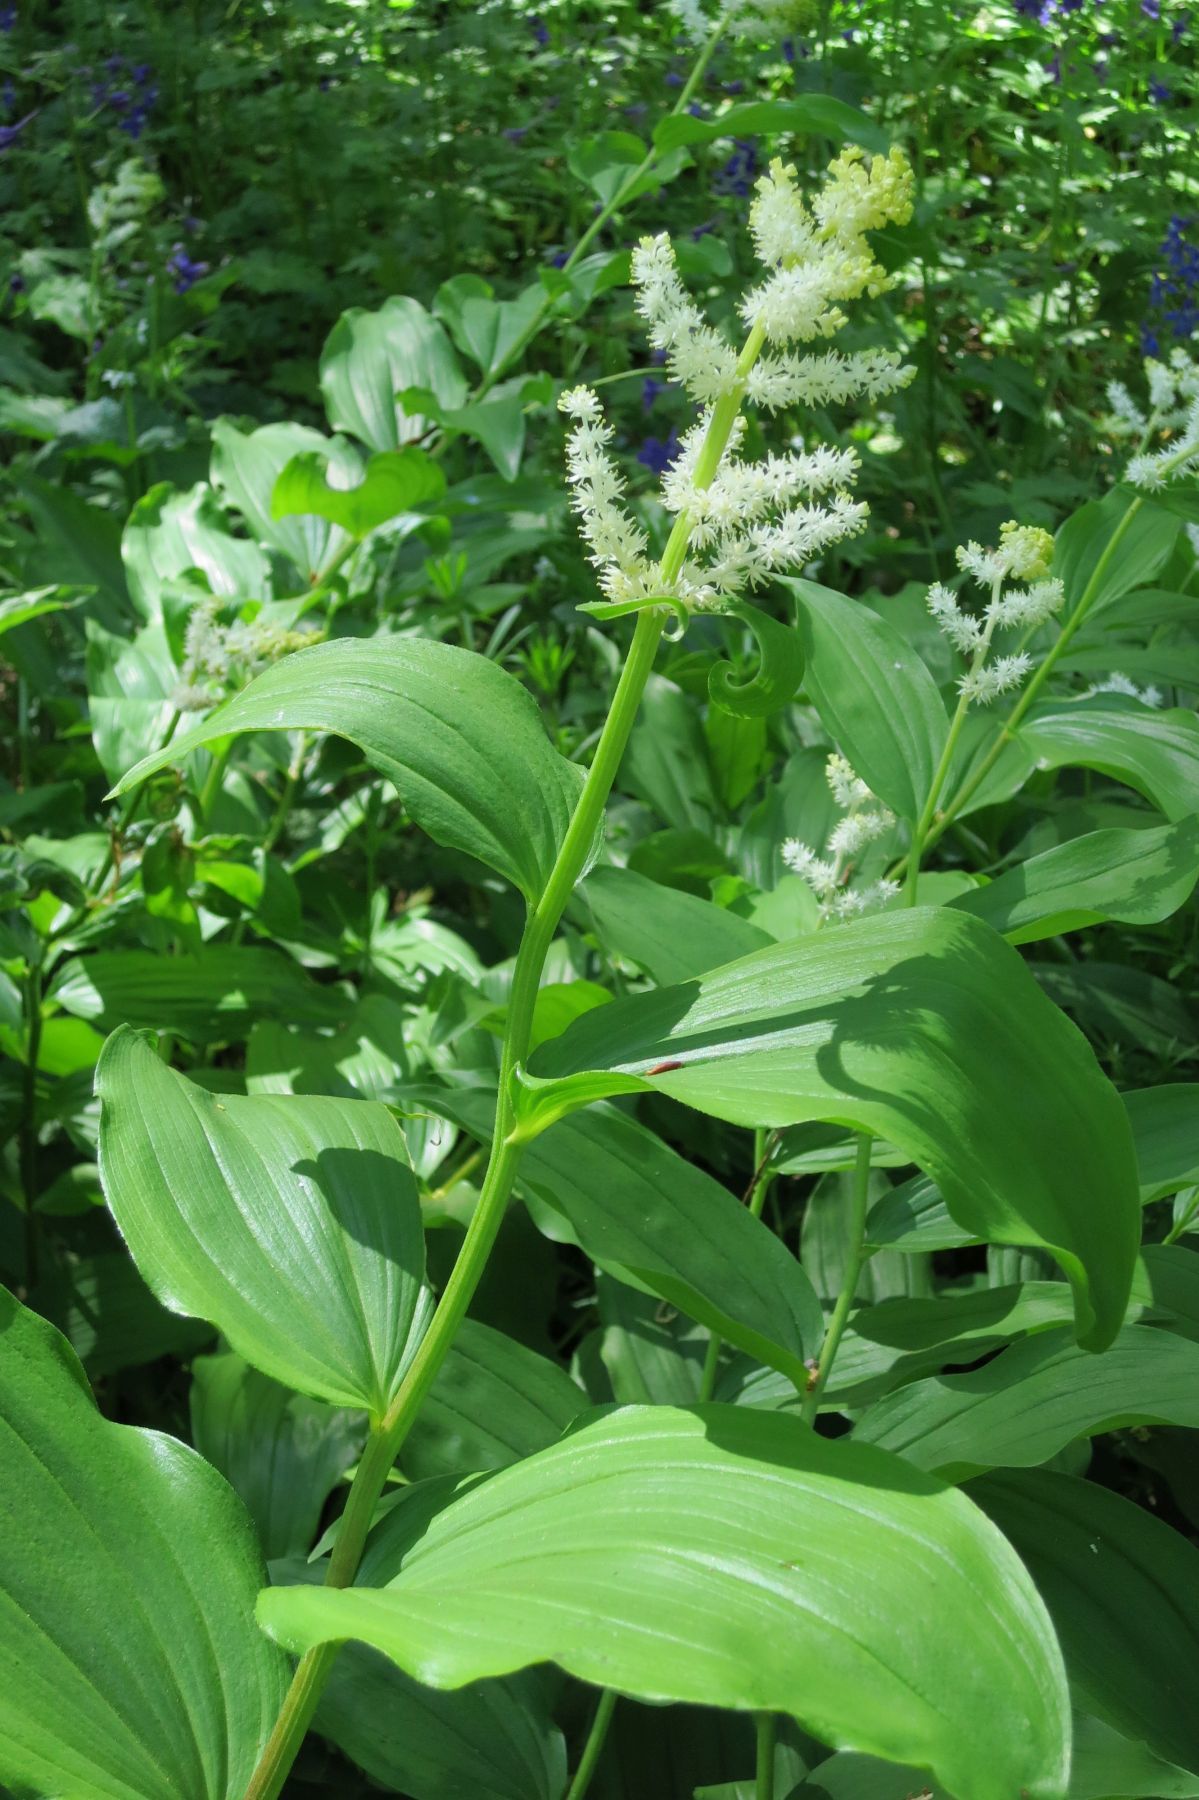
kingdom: Plantae
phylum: Tracheophyta
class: Liliopsida
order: Asparagales
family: Asparagaceae
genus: Maianthemum
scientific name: Maianthemum racemosum
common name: False spikenard
